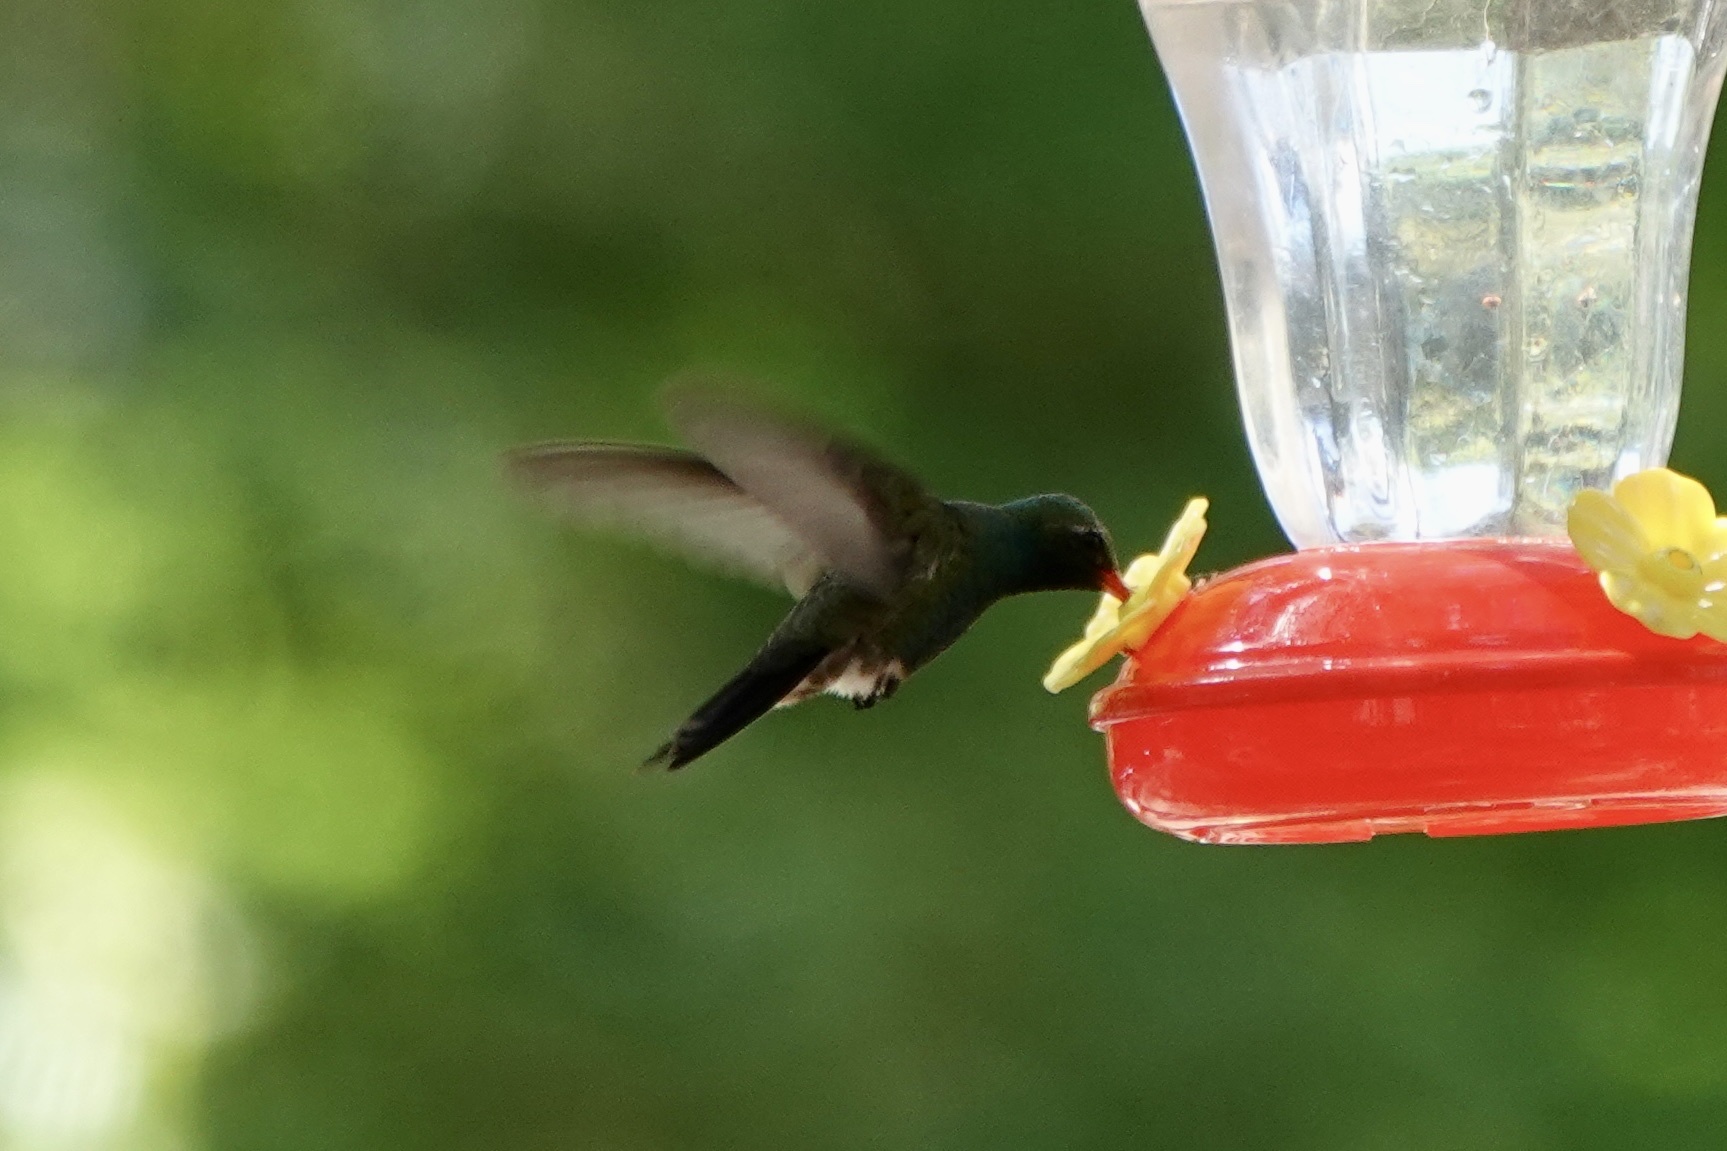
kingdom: Animalia
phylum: Chordata
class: Aves
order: Apodiformes
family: Trochilidae
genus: Cynanthus
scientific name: Cynanthus latirostris
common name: Broad-billed hummingbird
